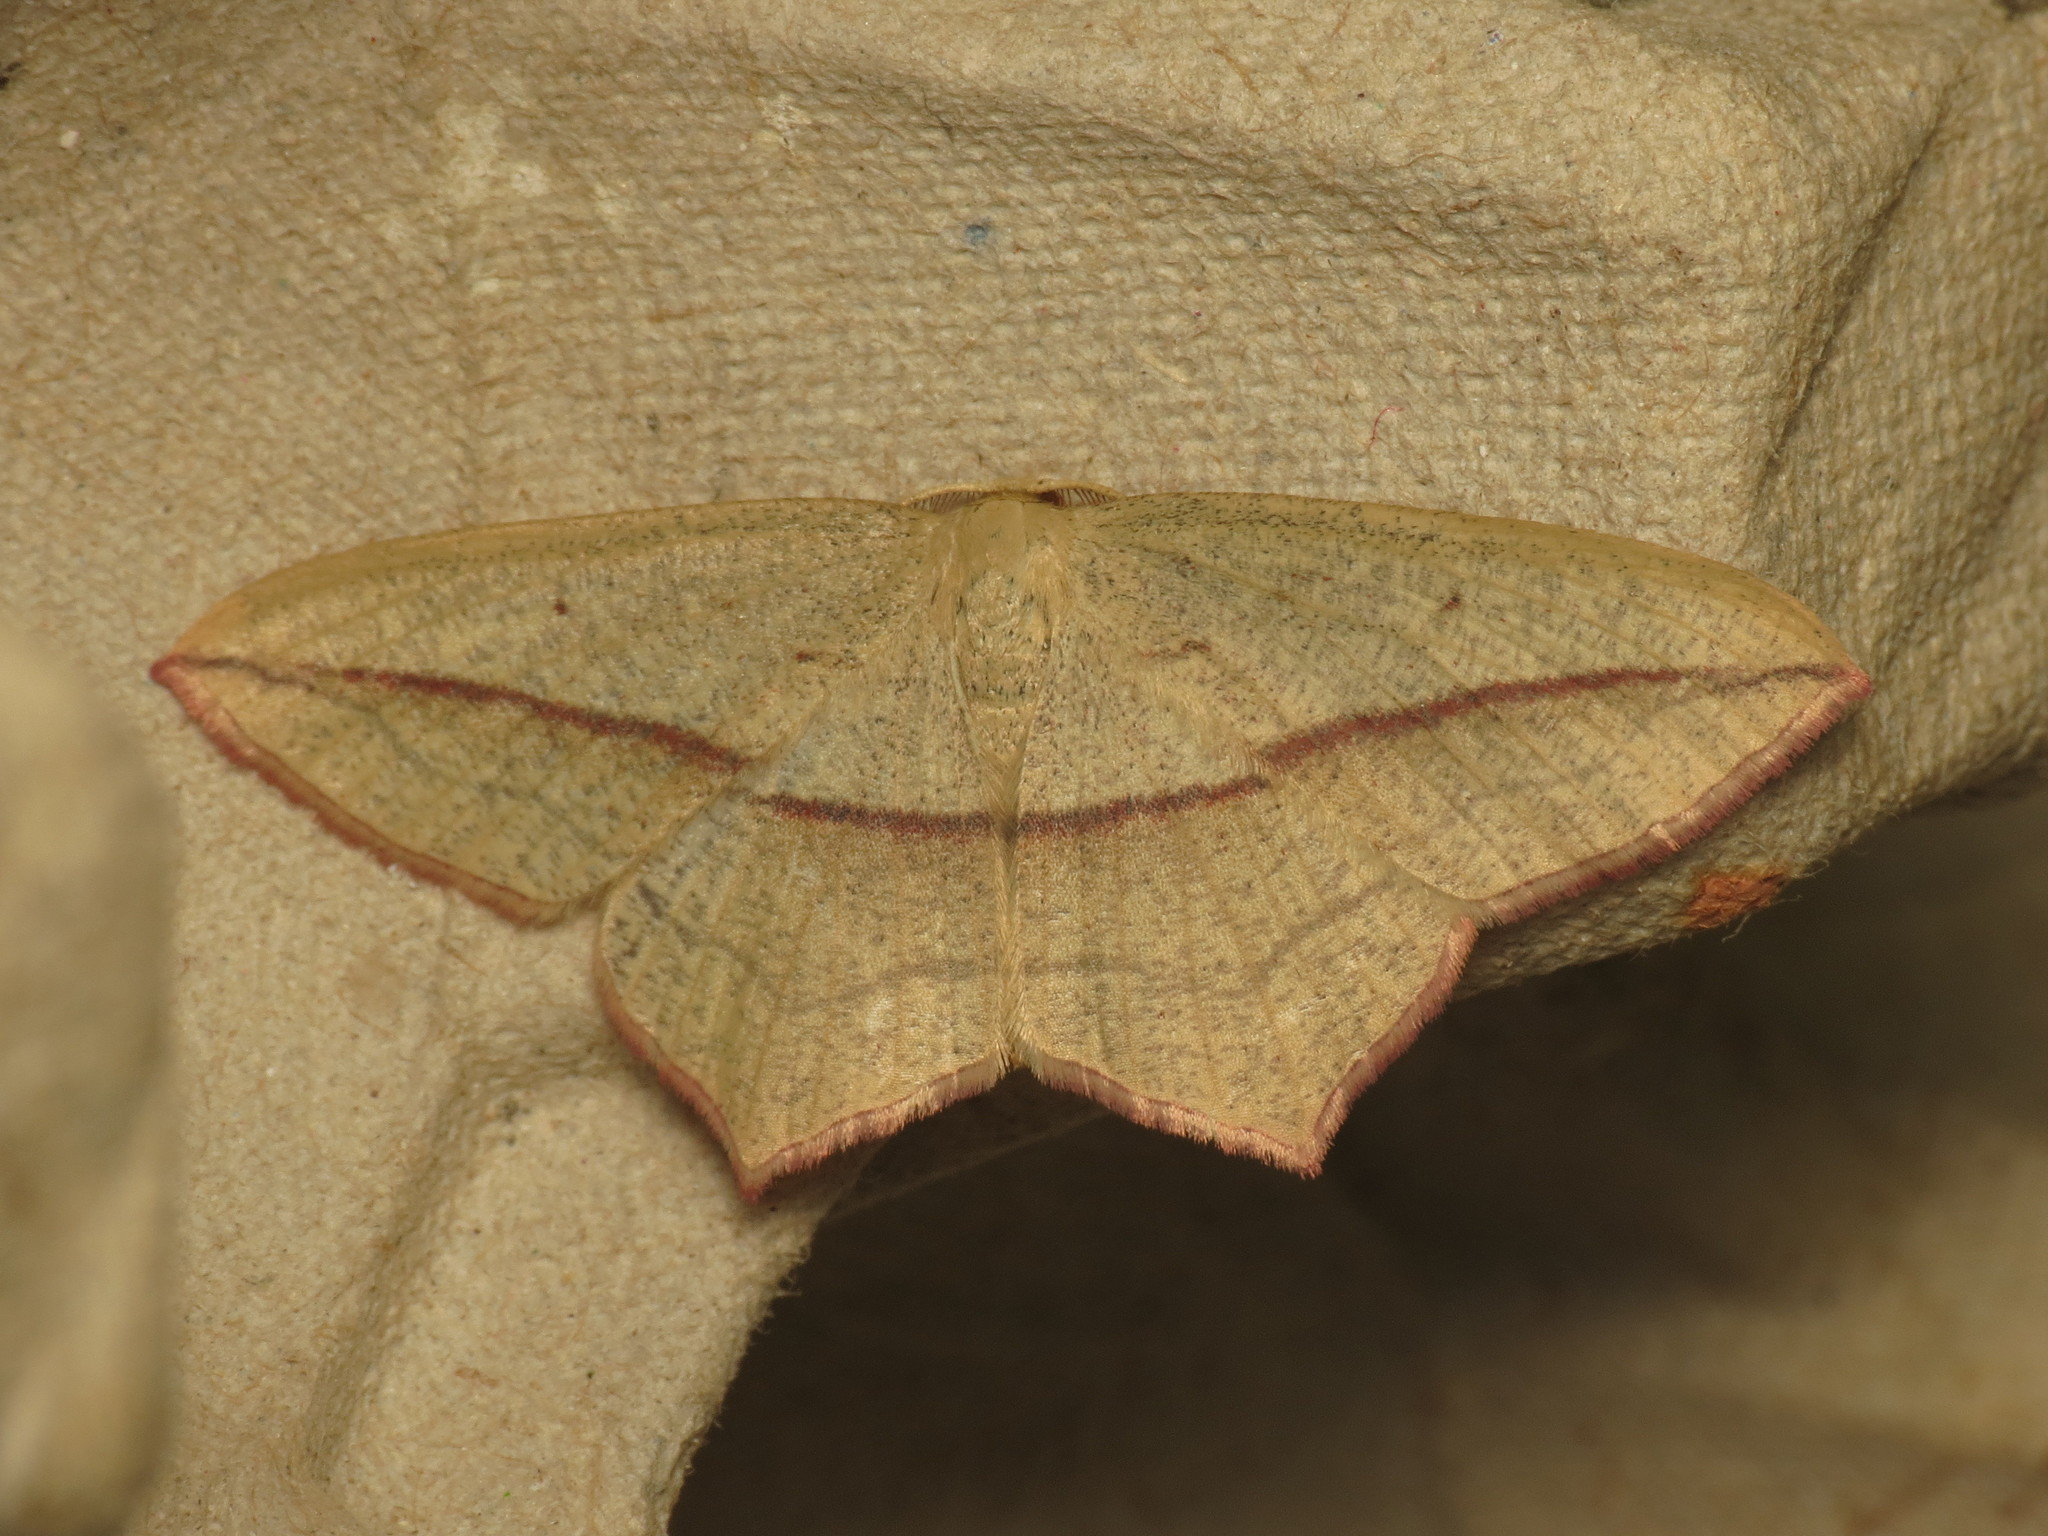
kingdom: Animalia
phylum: Arthropoda
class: Insecta
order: Lepidoptera
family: Geometridae
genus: Timandra
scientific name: Timandra comae
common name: Blood-vein
